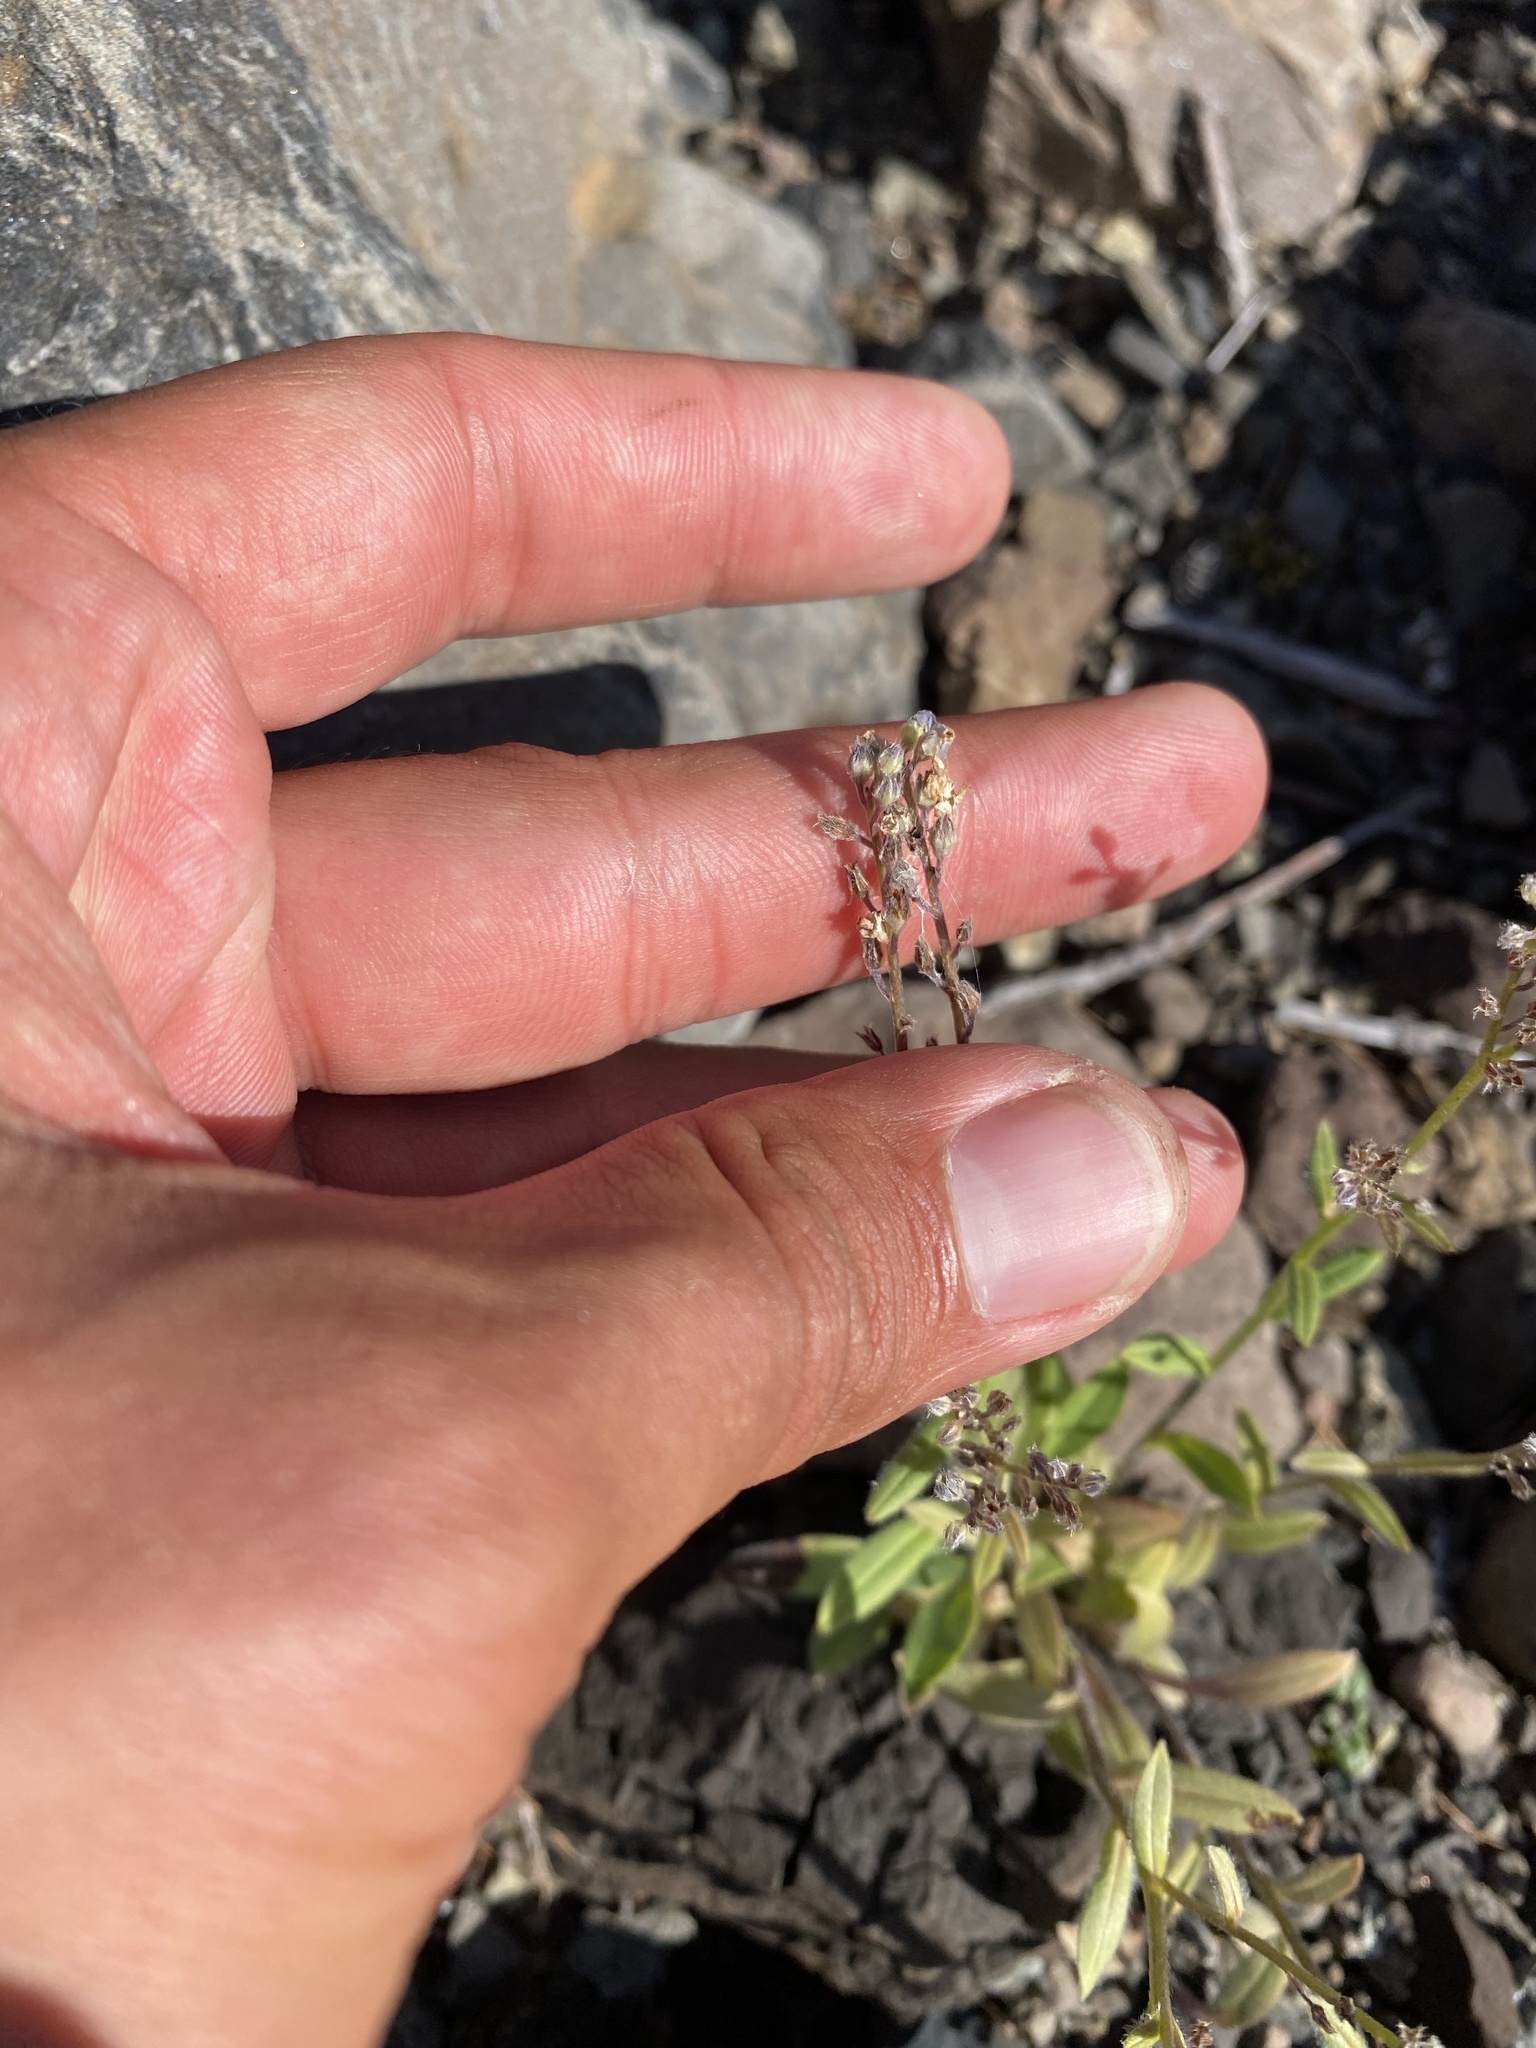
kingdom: Plantae
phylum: Tracheophyta
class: Magnoliopsida
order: Boraginales
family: Boraginaceae
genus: Myosotis
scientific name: Myosotis asiatica
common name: Asian forget-me-not
